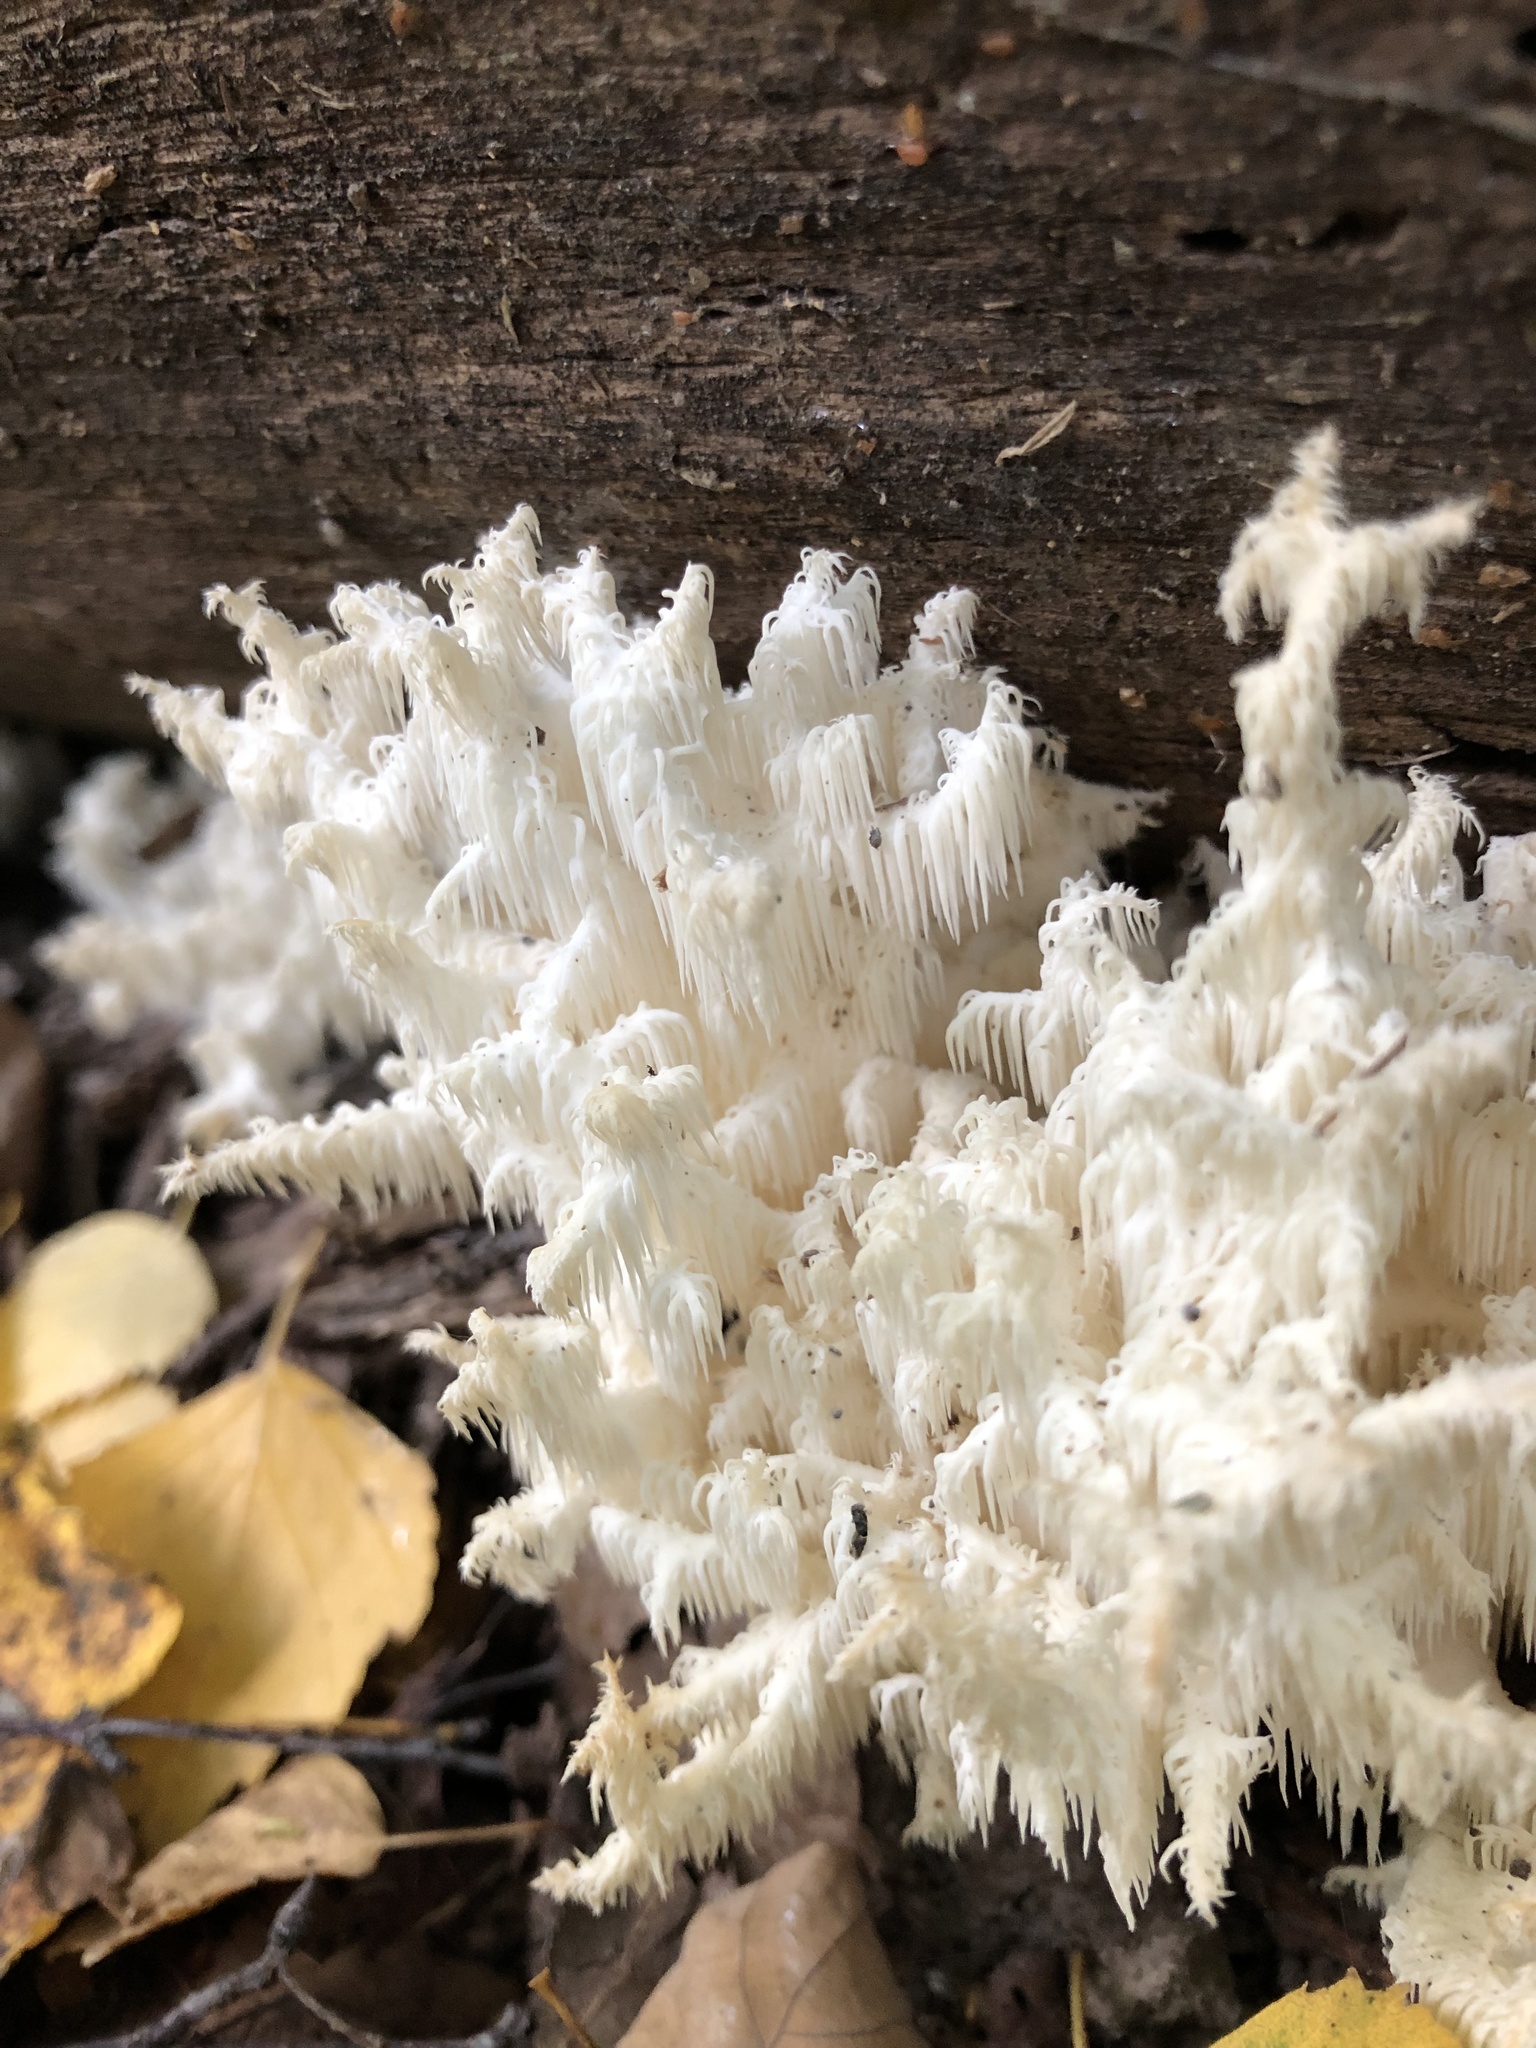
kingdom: Fungi
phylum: Basidiomycota
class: Agaricomycetes
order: Russulales
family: Hericiaceae
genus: Hericium
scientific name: Hericium coralloides
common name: Coral tooth
